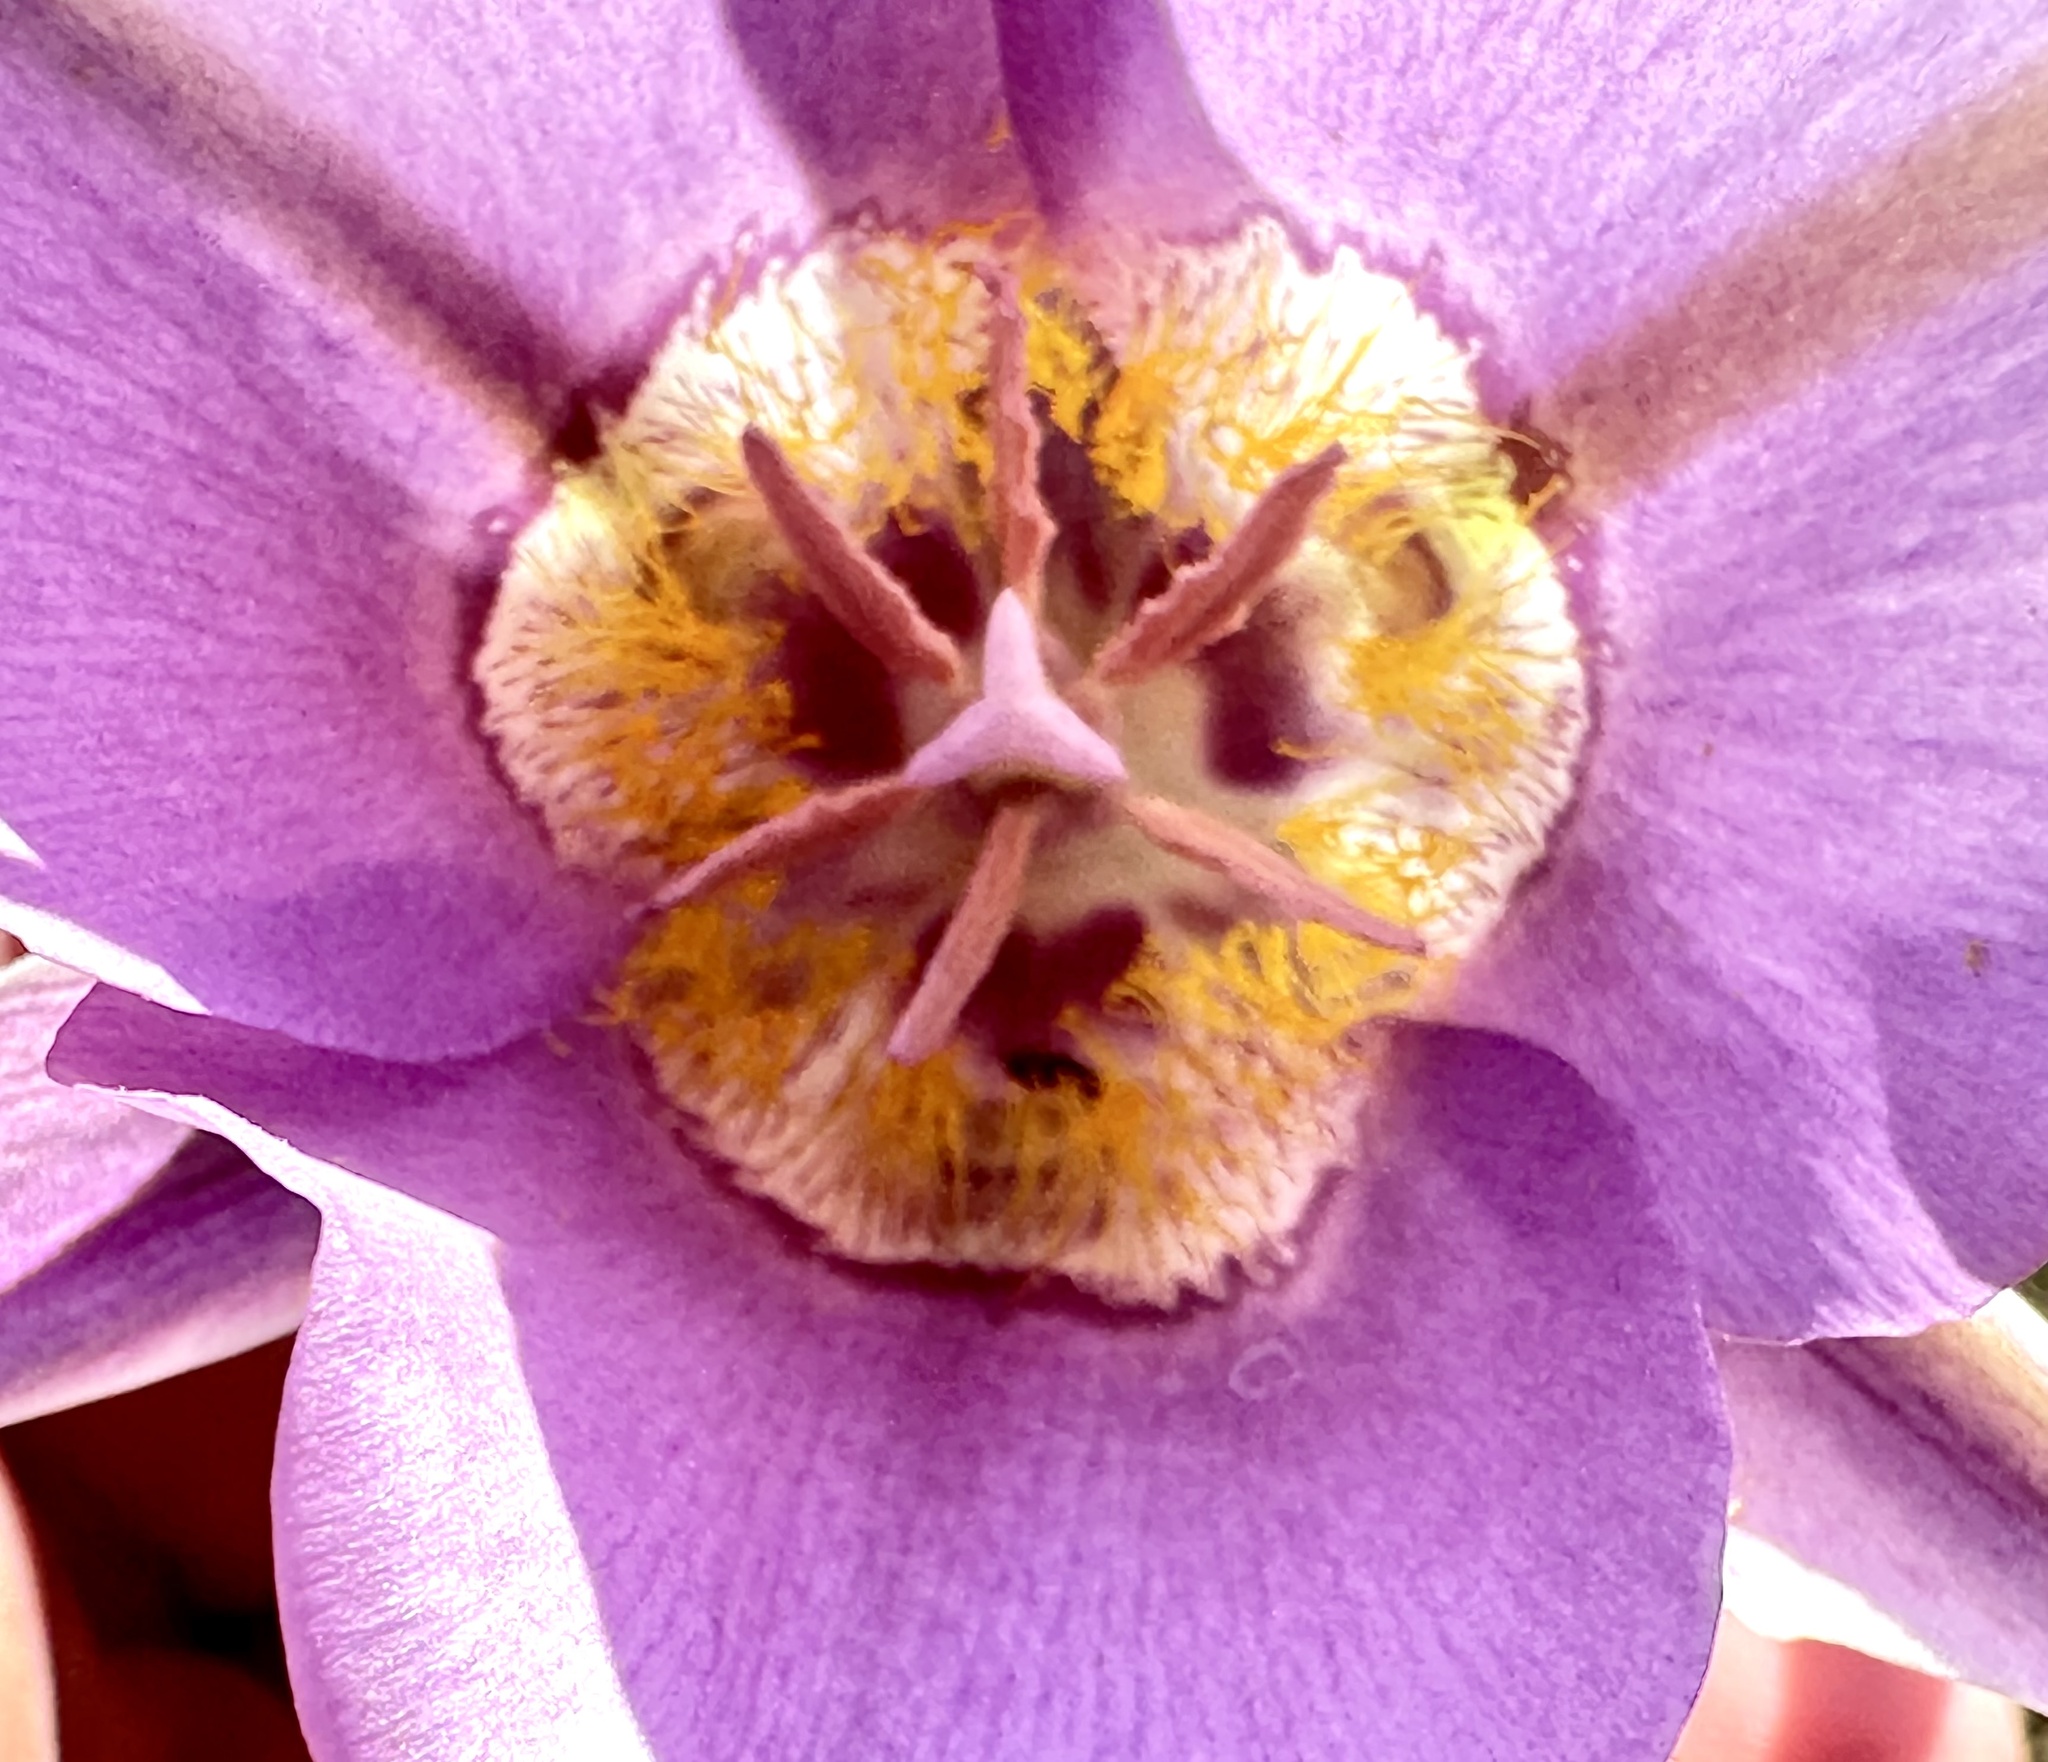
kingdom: Plantae
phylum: Tracheophyta
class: Liliopsida
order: Liliales
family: Liliaceae
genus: Calochortus
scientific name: Calochortus macrocarpus
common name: Green-band mariposa lily
